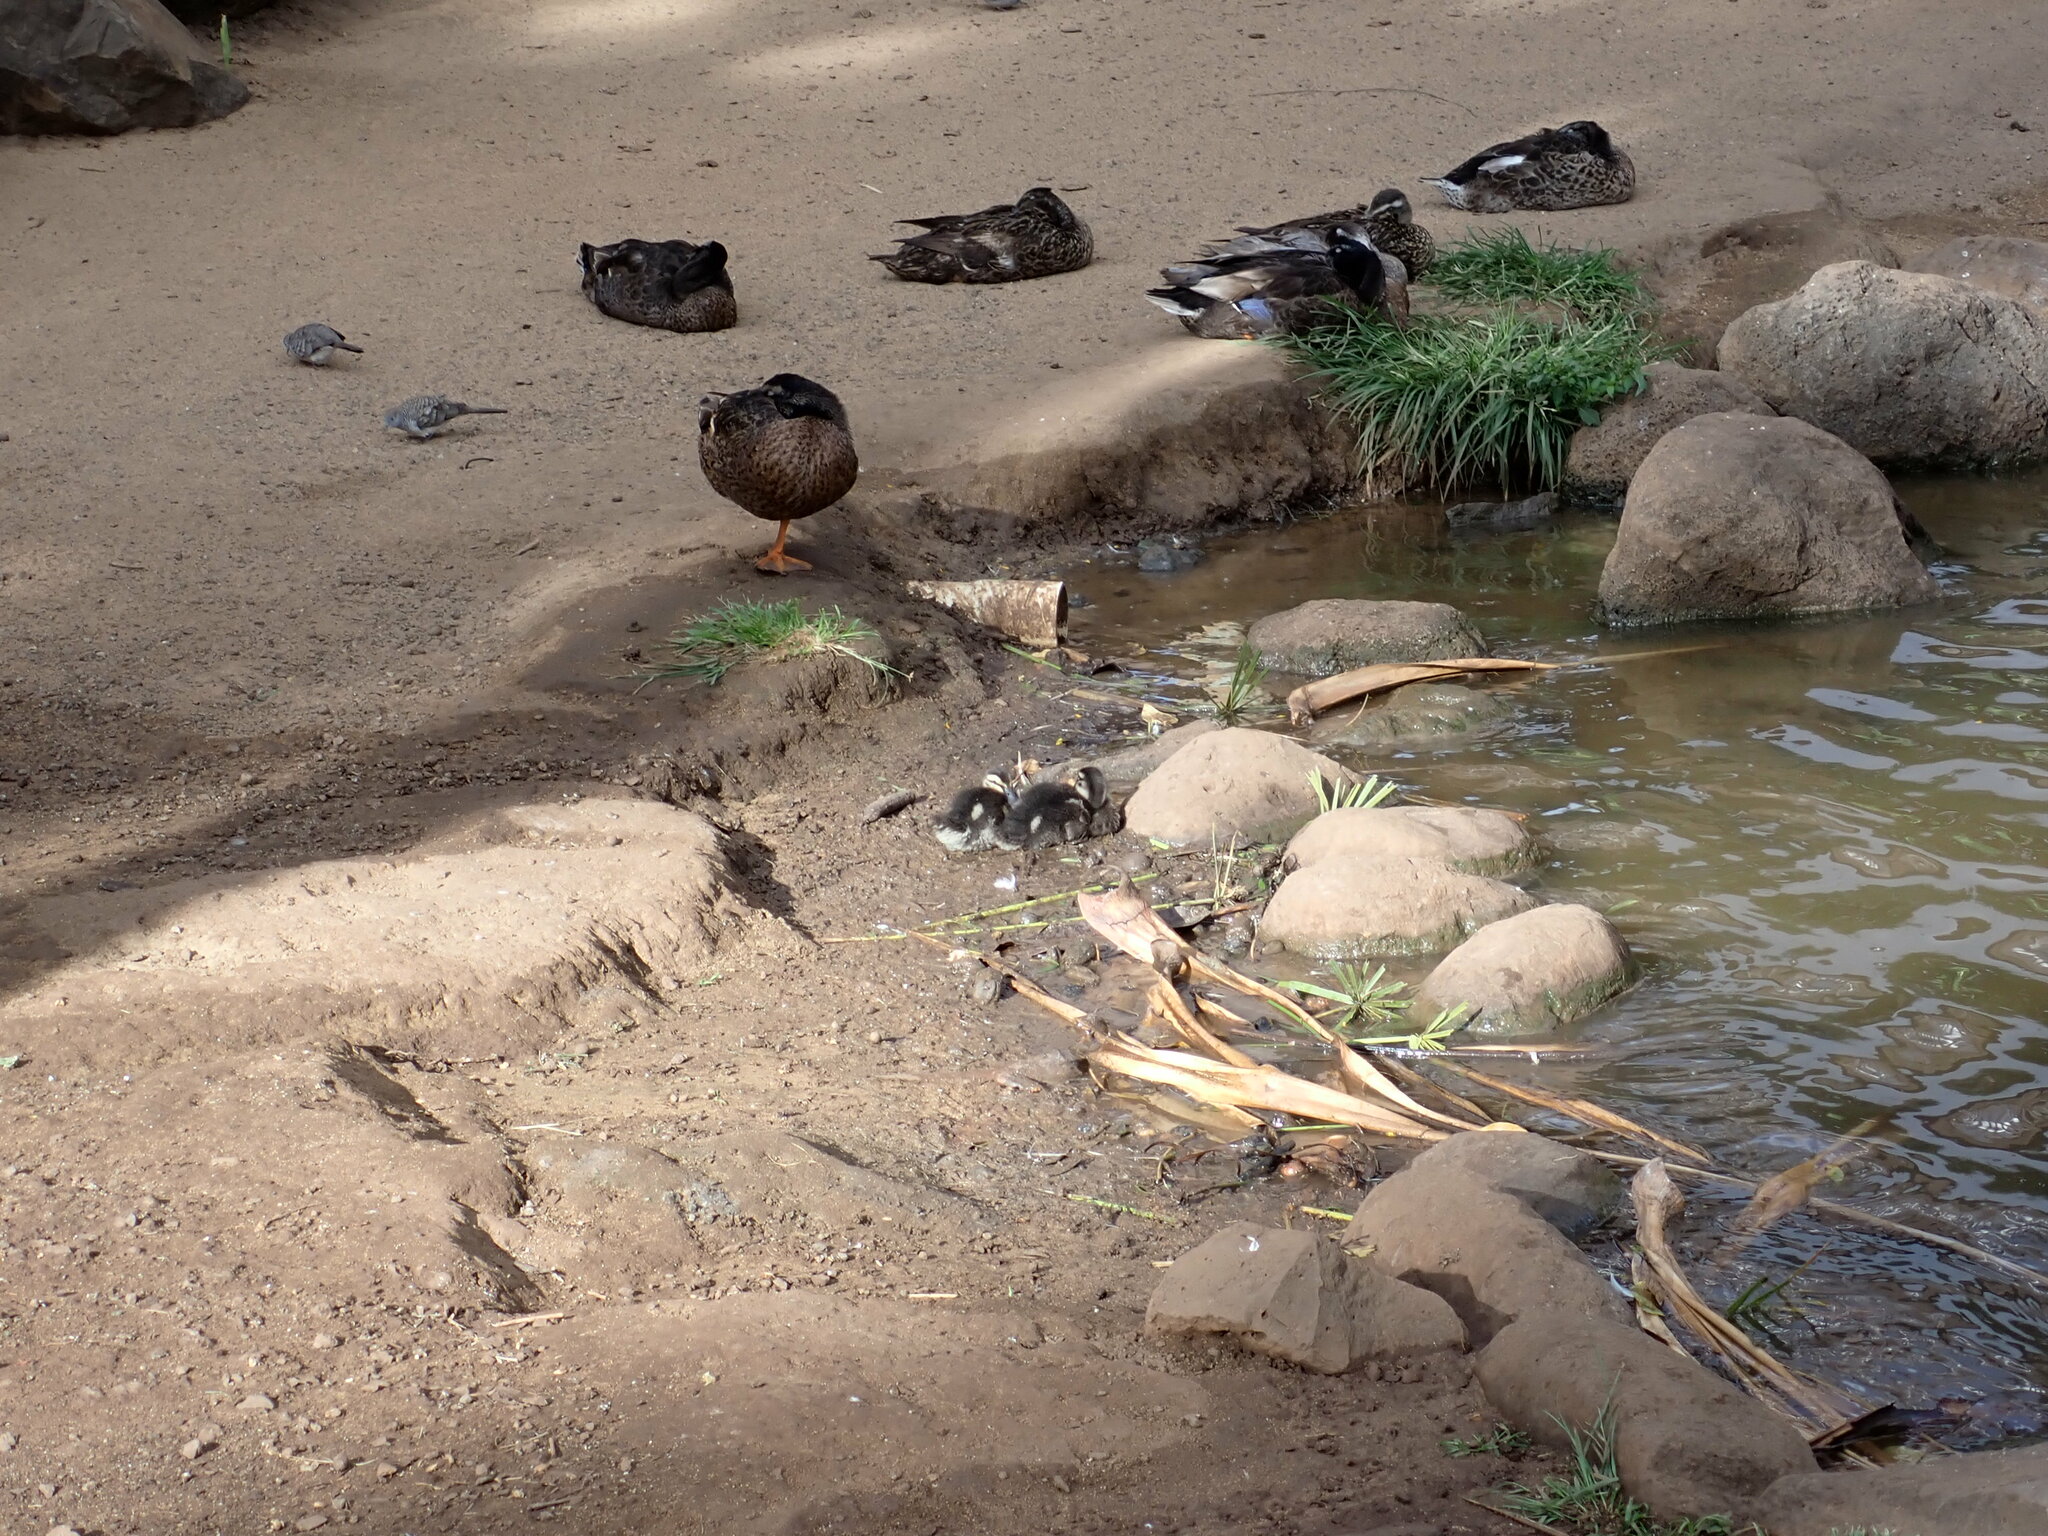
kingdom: Animalia
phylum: Chordata
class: Aves
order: Anseriformes
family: Anatidae
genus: Anas
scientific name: Anas platyrhynchos
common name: Mallard
